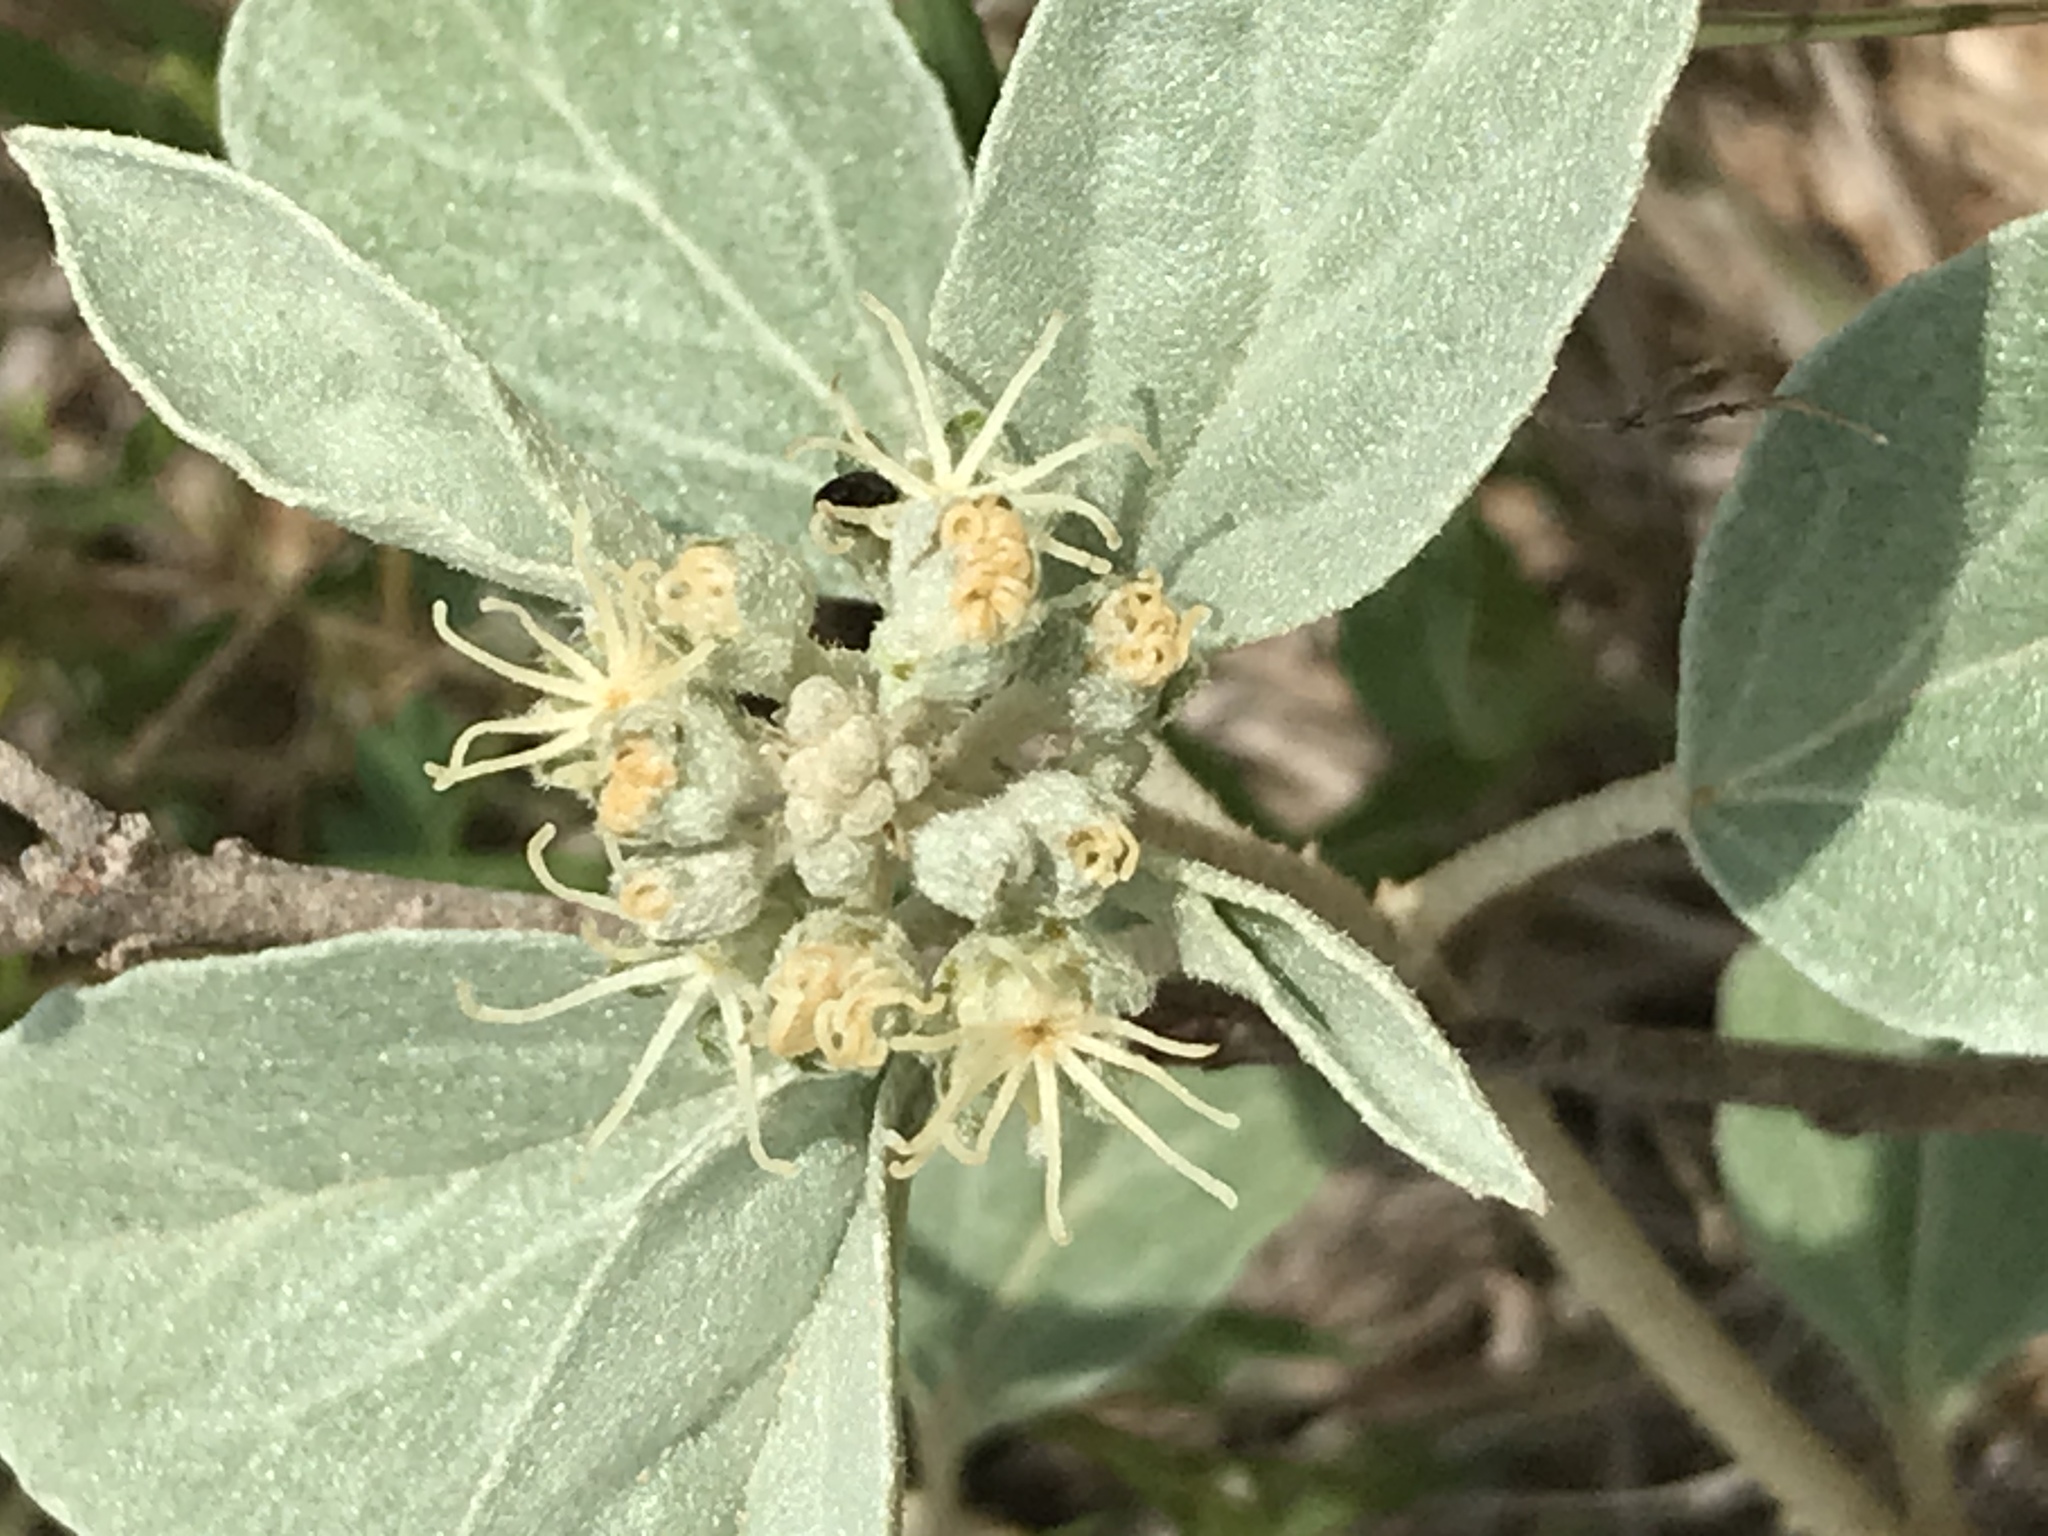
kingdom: Plantae
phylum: Tracheophyta
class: Magnoliopsida
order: Malpighiales
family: Euphorbiaceae
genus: Croton
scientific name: Croton pottsii
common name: Leatherweed
